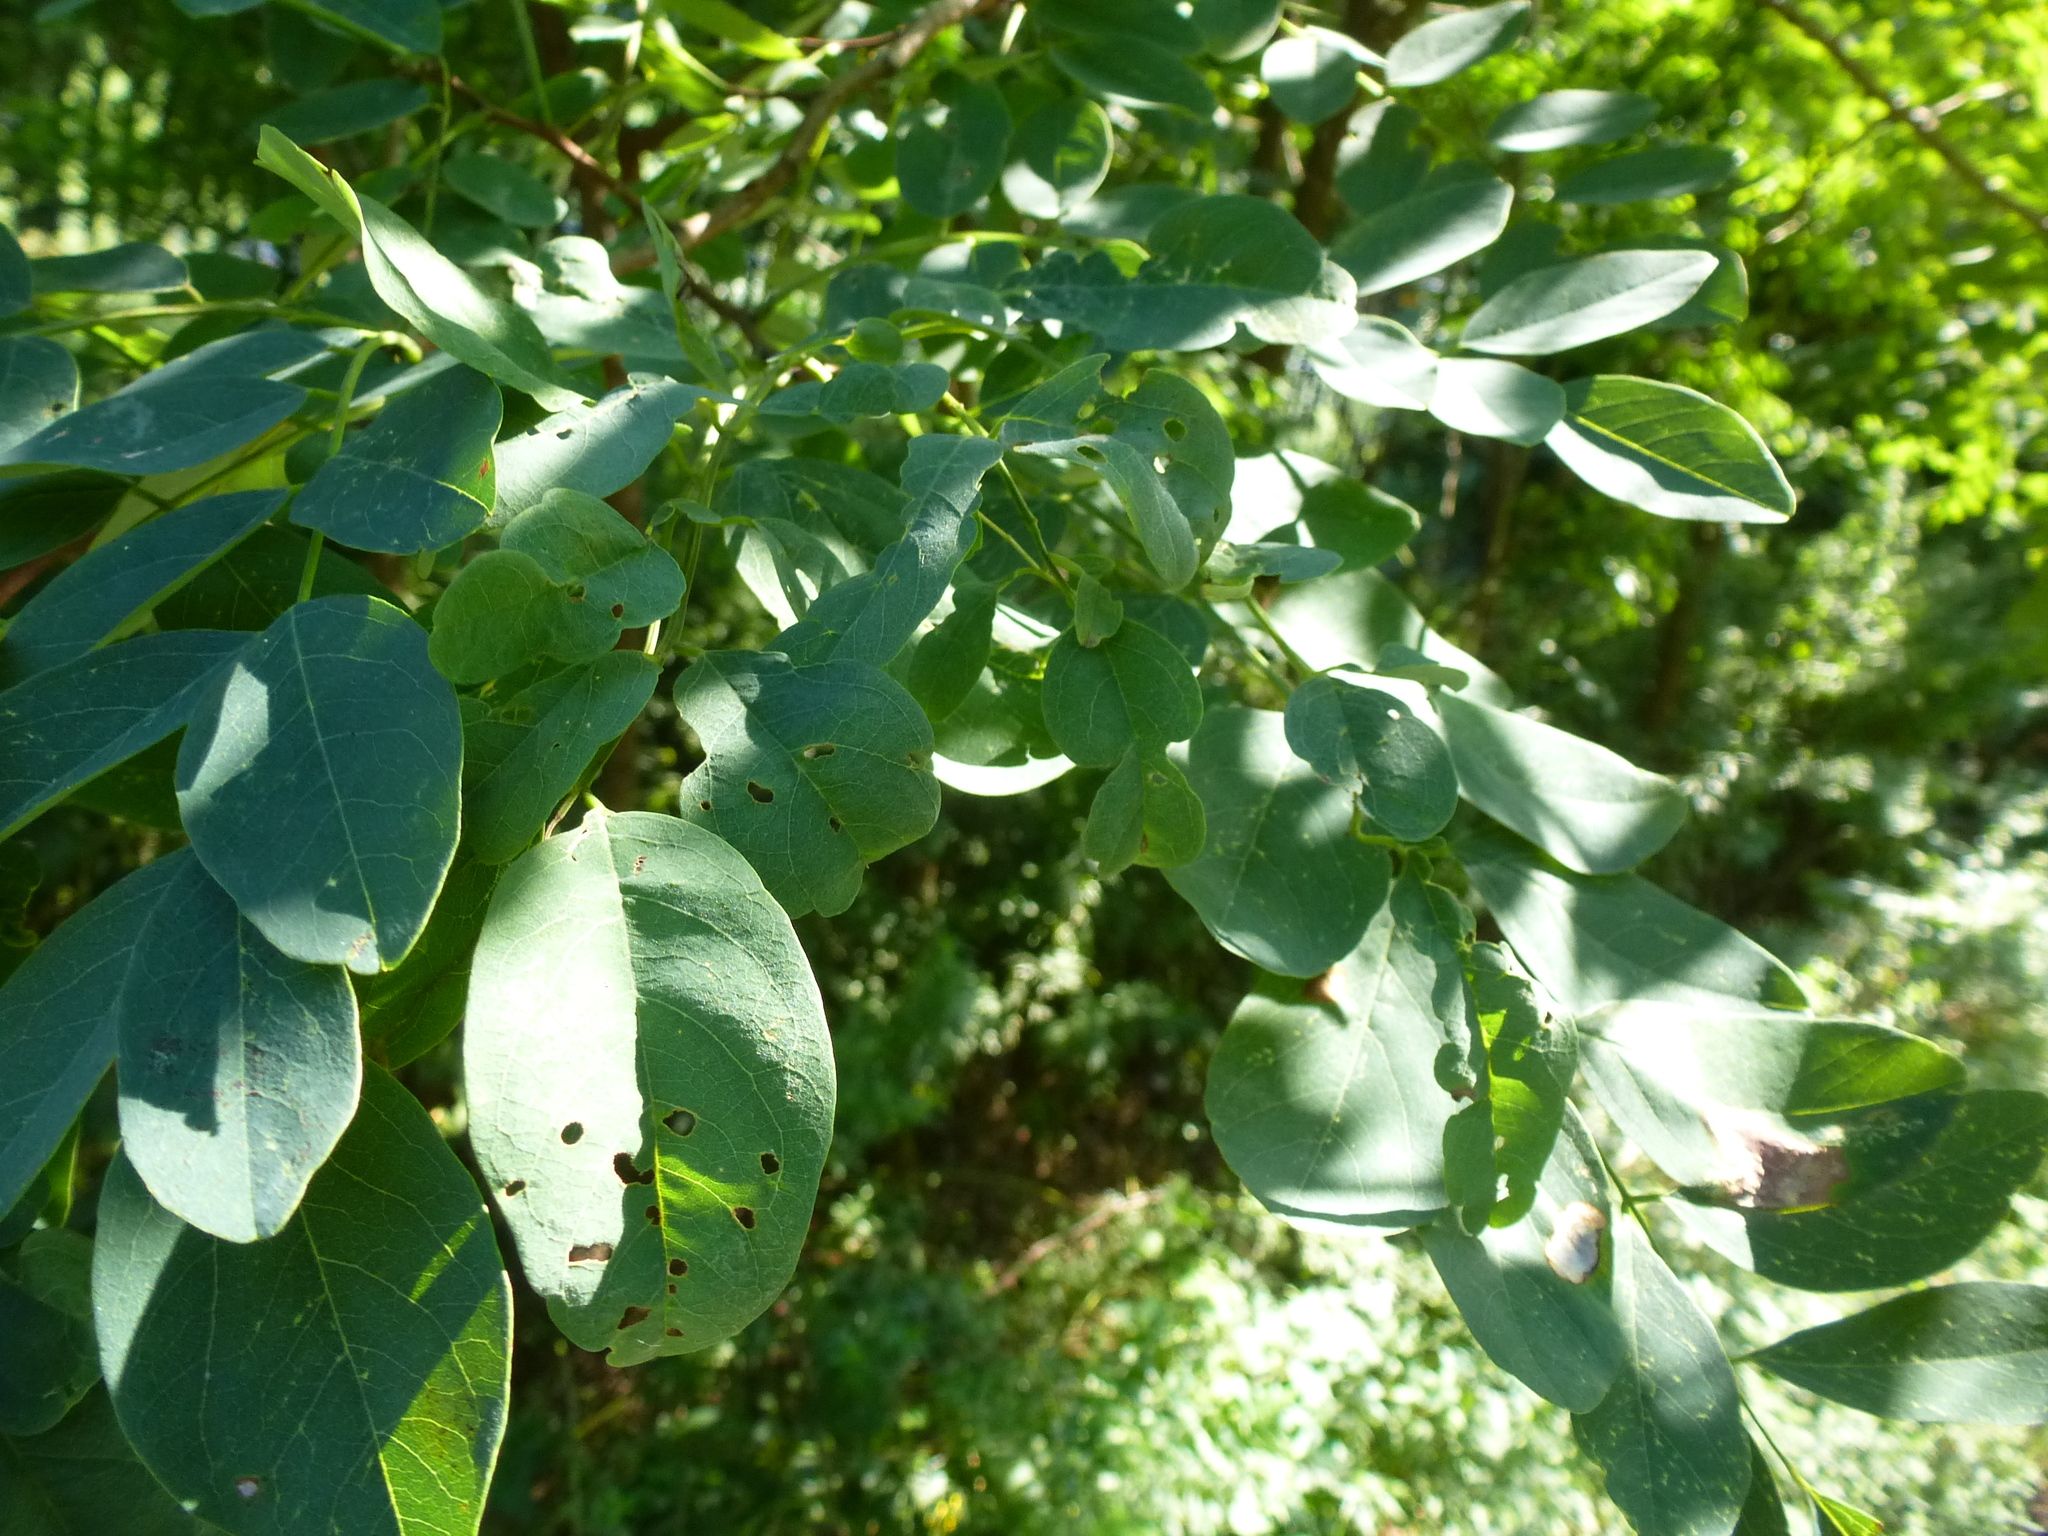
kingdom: Plantae
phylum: Tracheophyta
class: Magnoliopsida
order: Fabales
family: Fabaceae
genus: Robinia
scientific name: Robinia pseudoacacia
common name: Black locust
